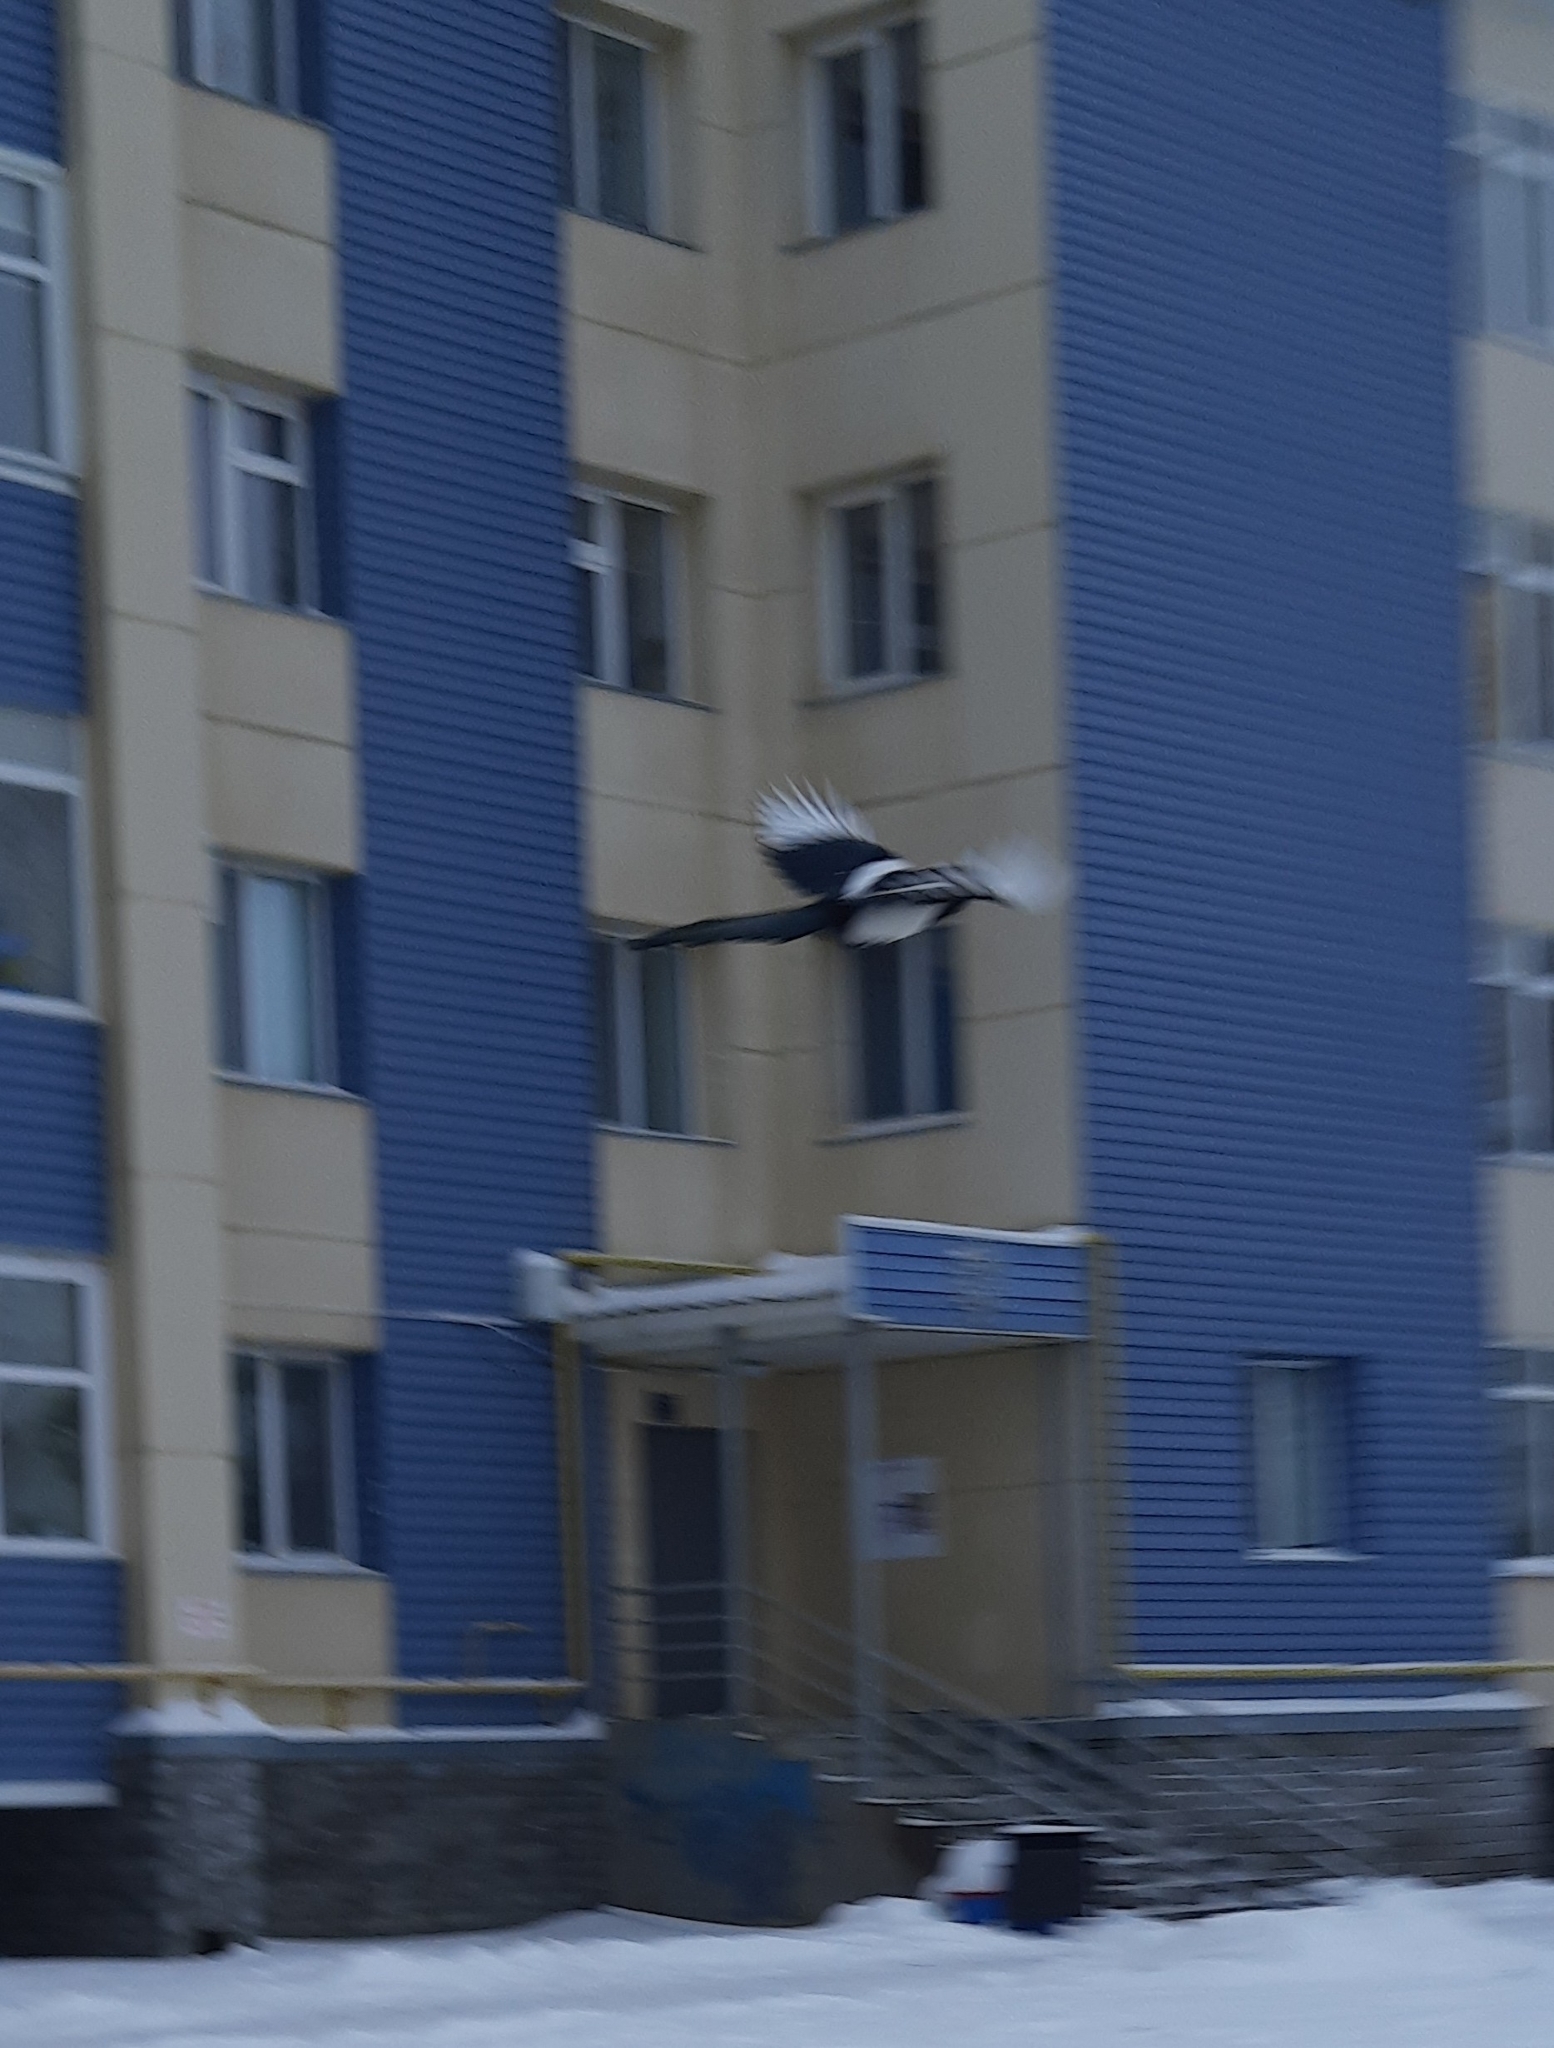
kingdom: Animalia
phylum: Chordata
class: Aves
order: Passeriformes
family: Corvidae
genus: Pica
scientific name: Pica pica
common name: Eurasian magpie
